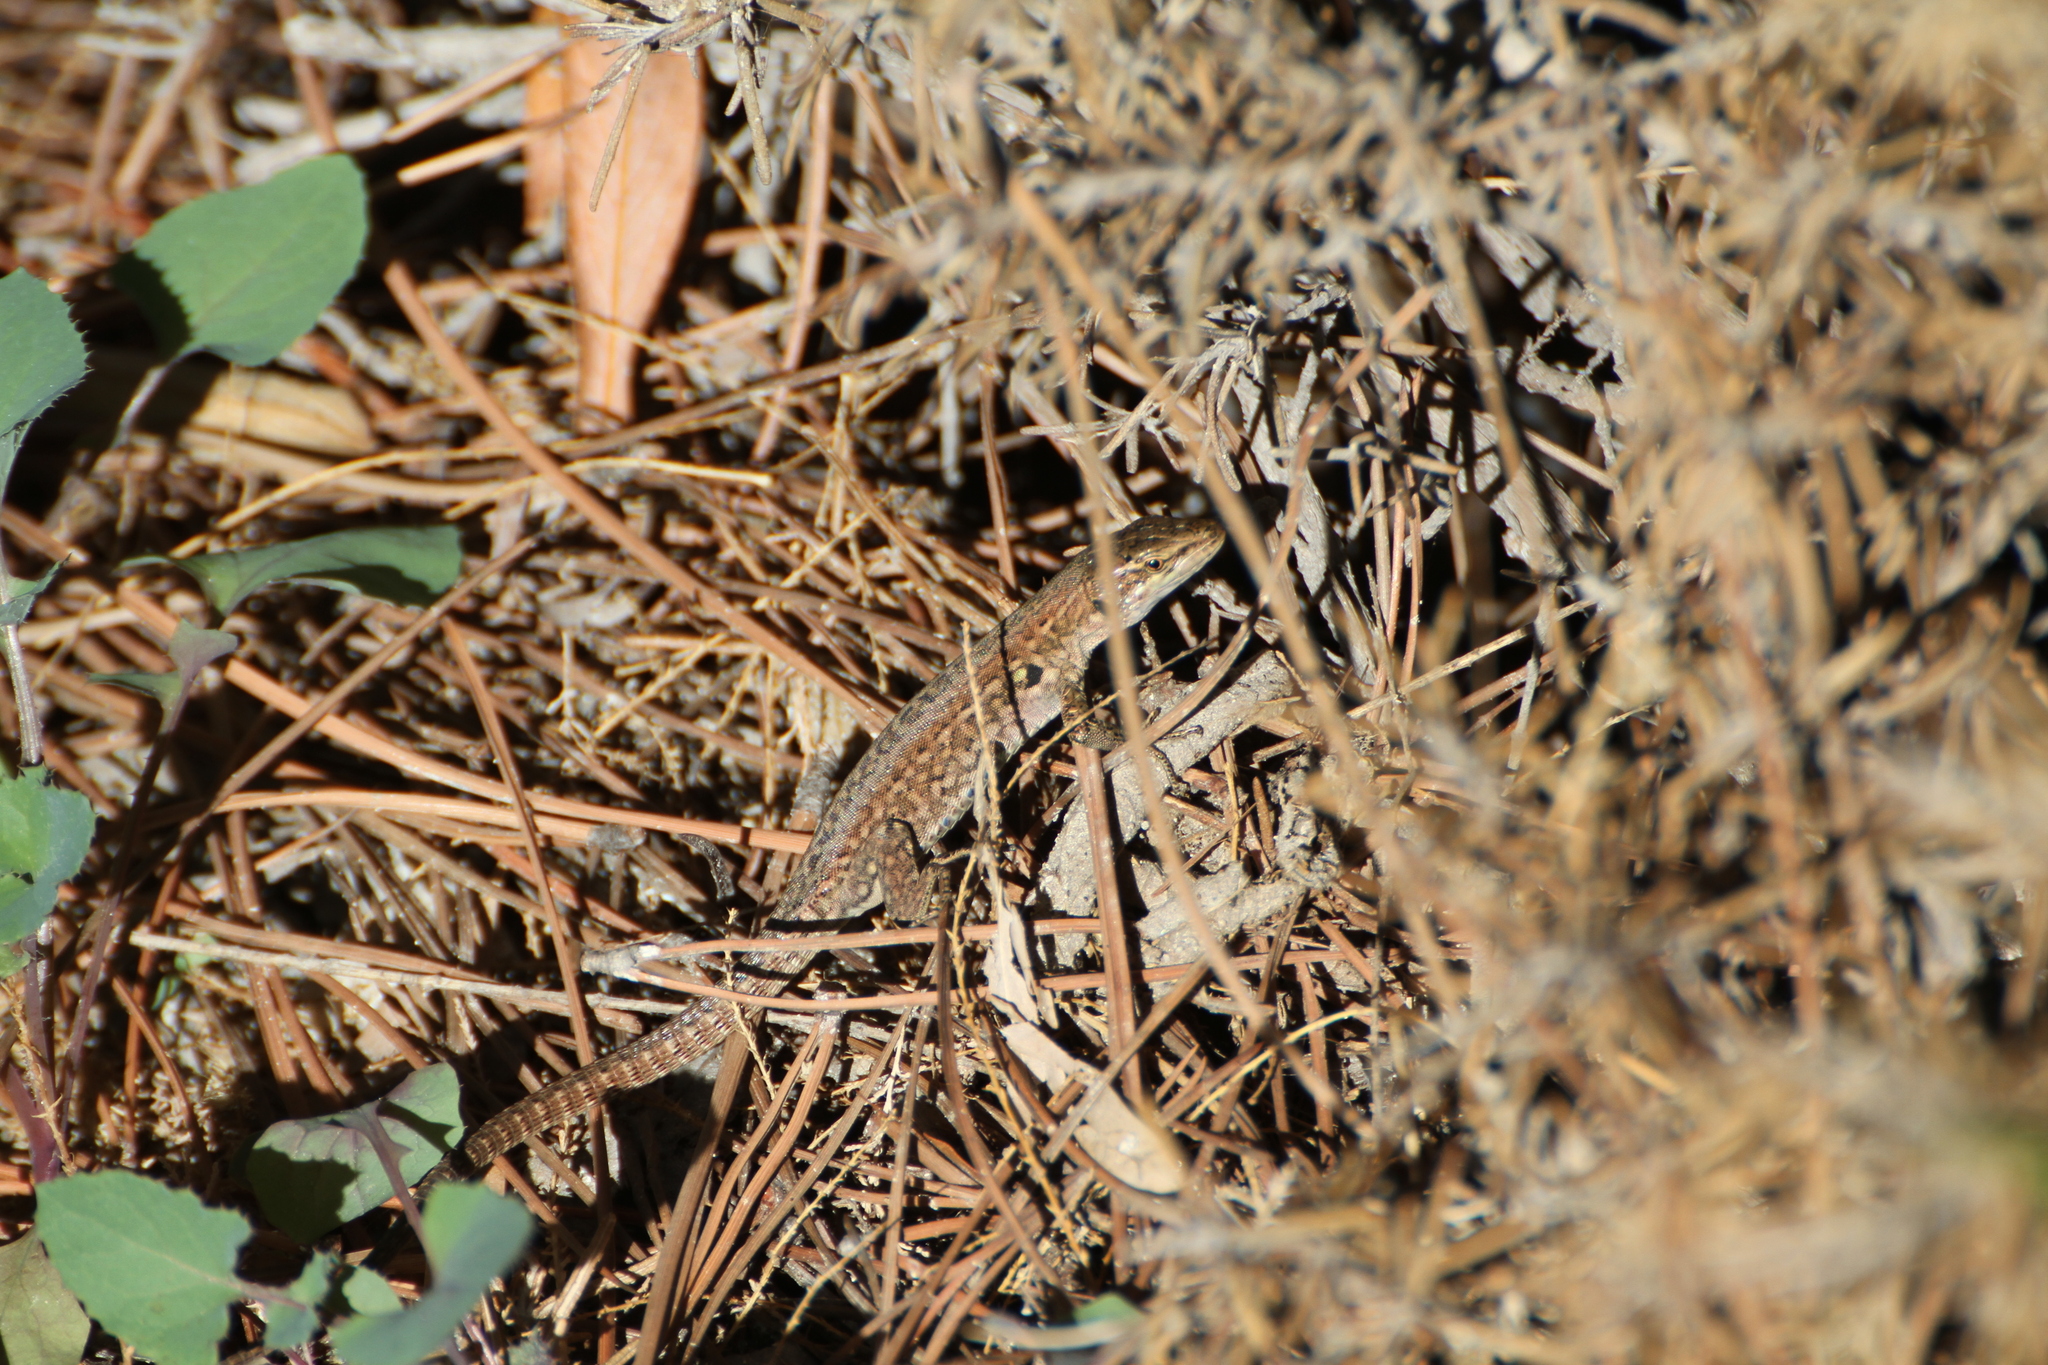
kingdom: Animalia
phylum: Chordata
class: Squamata
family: Lacertidae
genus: Podarcis
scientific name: Podarcis siculus
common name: Italian wall lizard
